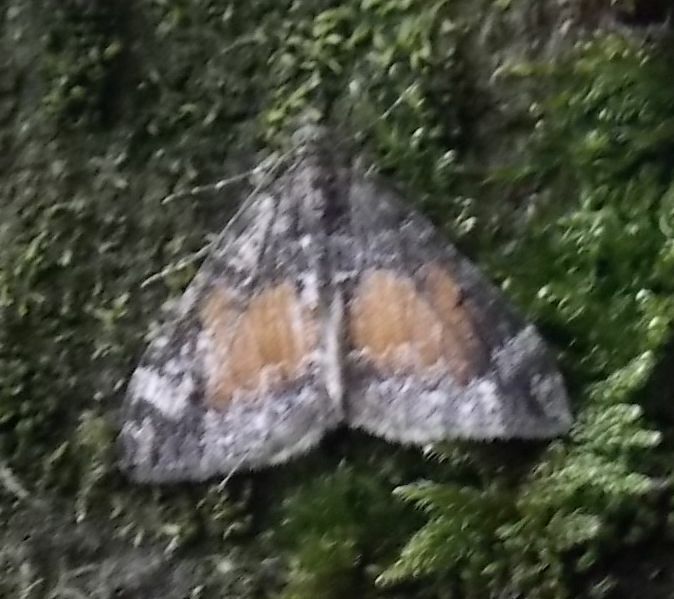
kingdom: Animalia
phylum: Arthropoda
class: Insecta
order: Lepidoptera
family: Geometridae
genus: Dysstroma
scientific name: Dysstroma truncata
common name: Common marbled carpet
